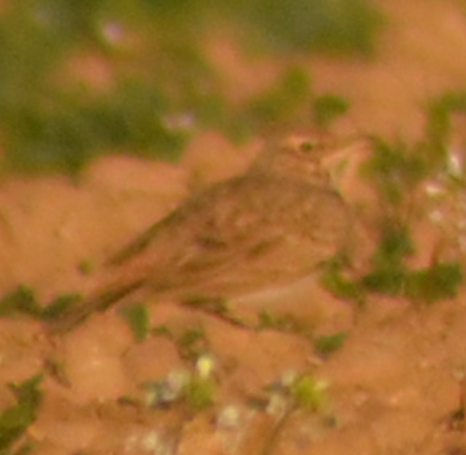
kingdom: Animalia
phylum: Chordata
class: Aves
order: Passeriformes
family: Alaudidae
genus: Galerida
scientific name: Galerida cristata
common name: Crested lark
